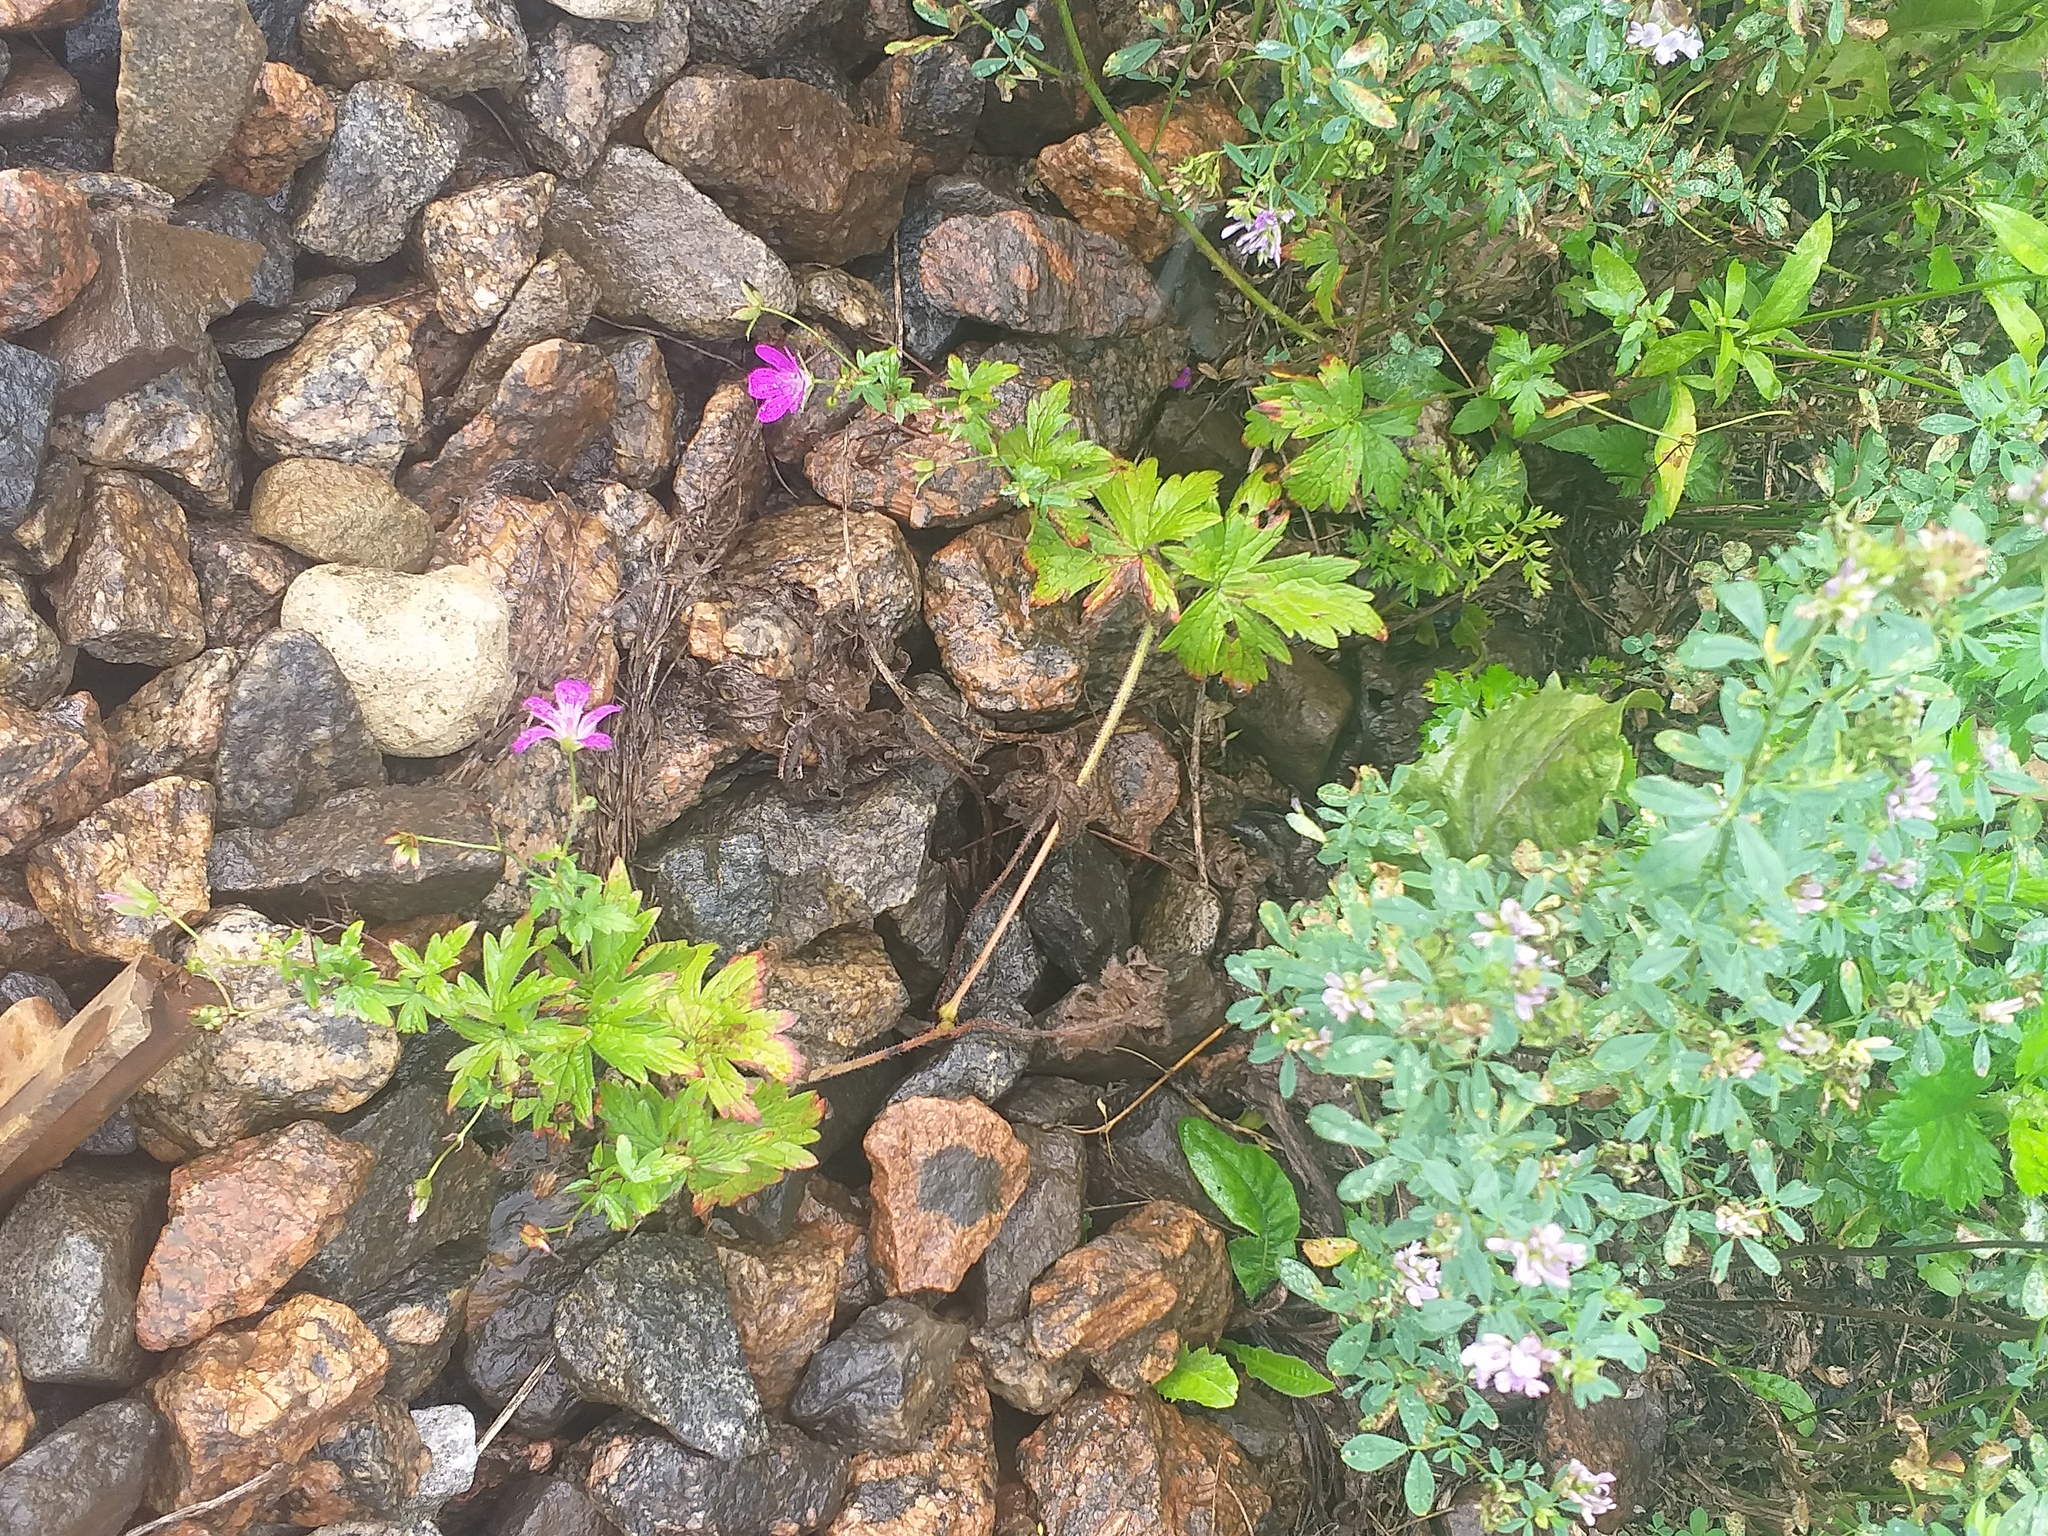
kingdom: Plantae
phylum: Tracheophyta
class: Magnoliopsida
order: Geraniales
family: Geraniaceae
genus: Geranium
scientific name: Geranium palustre
